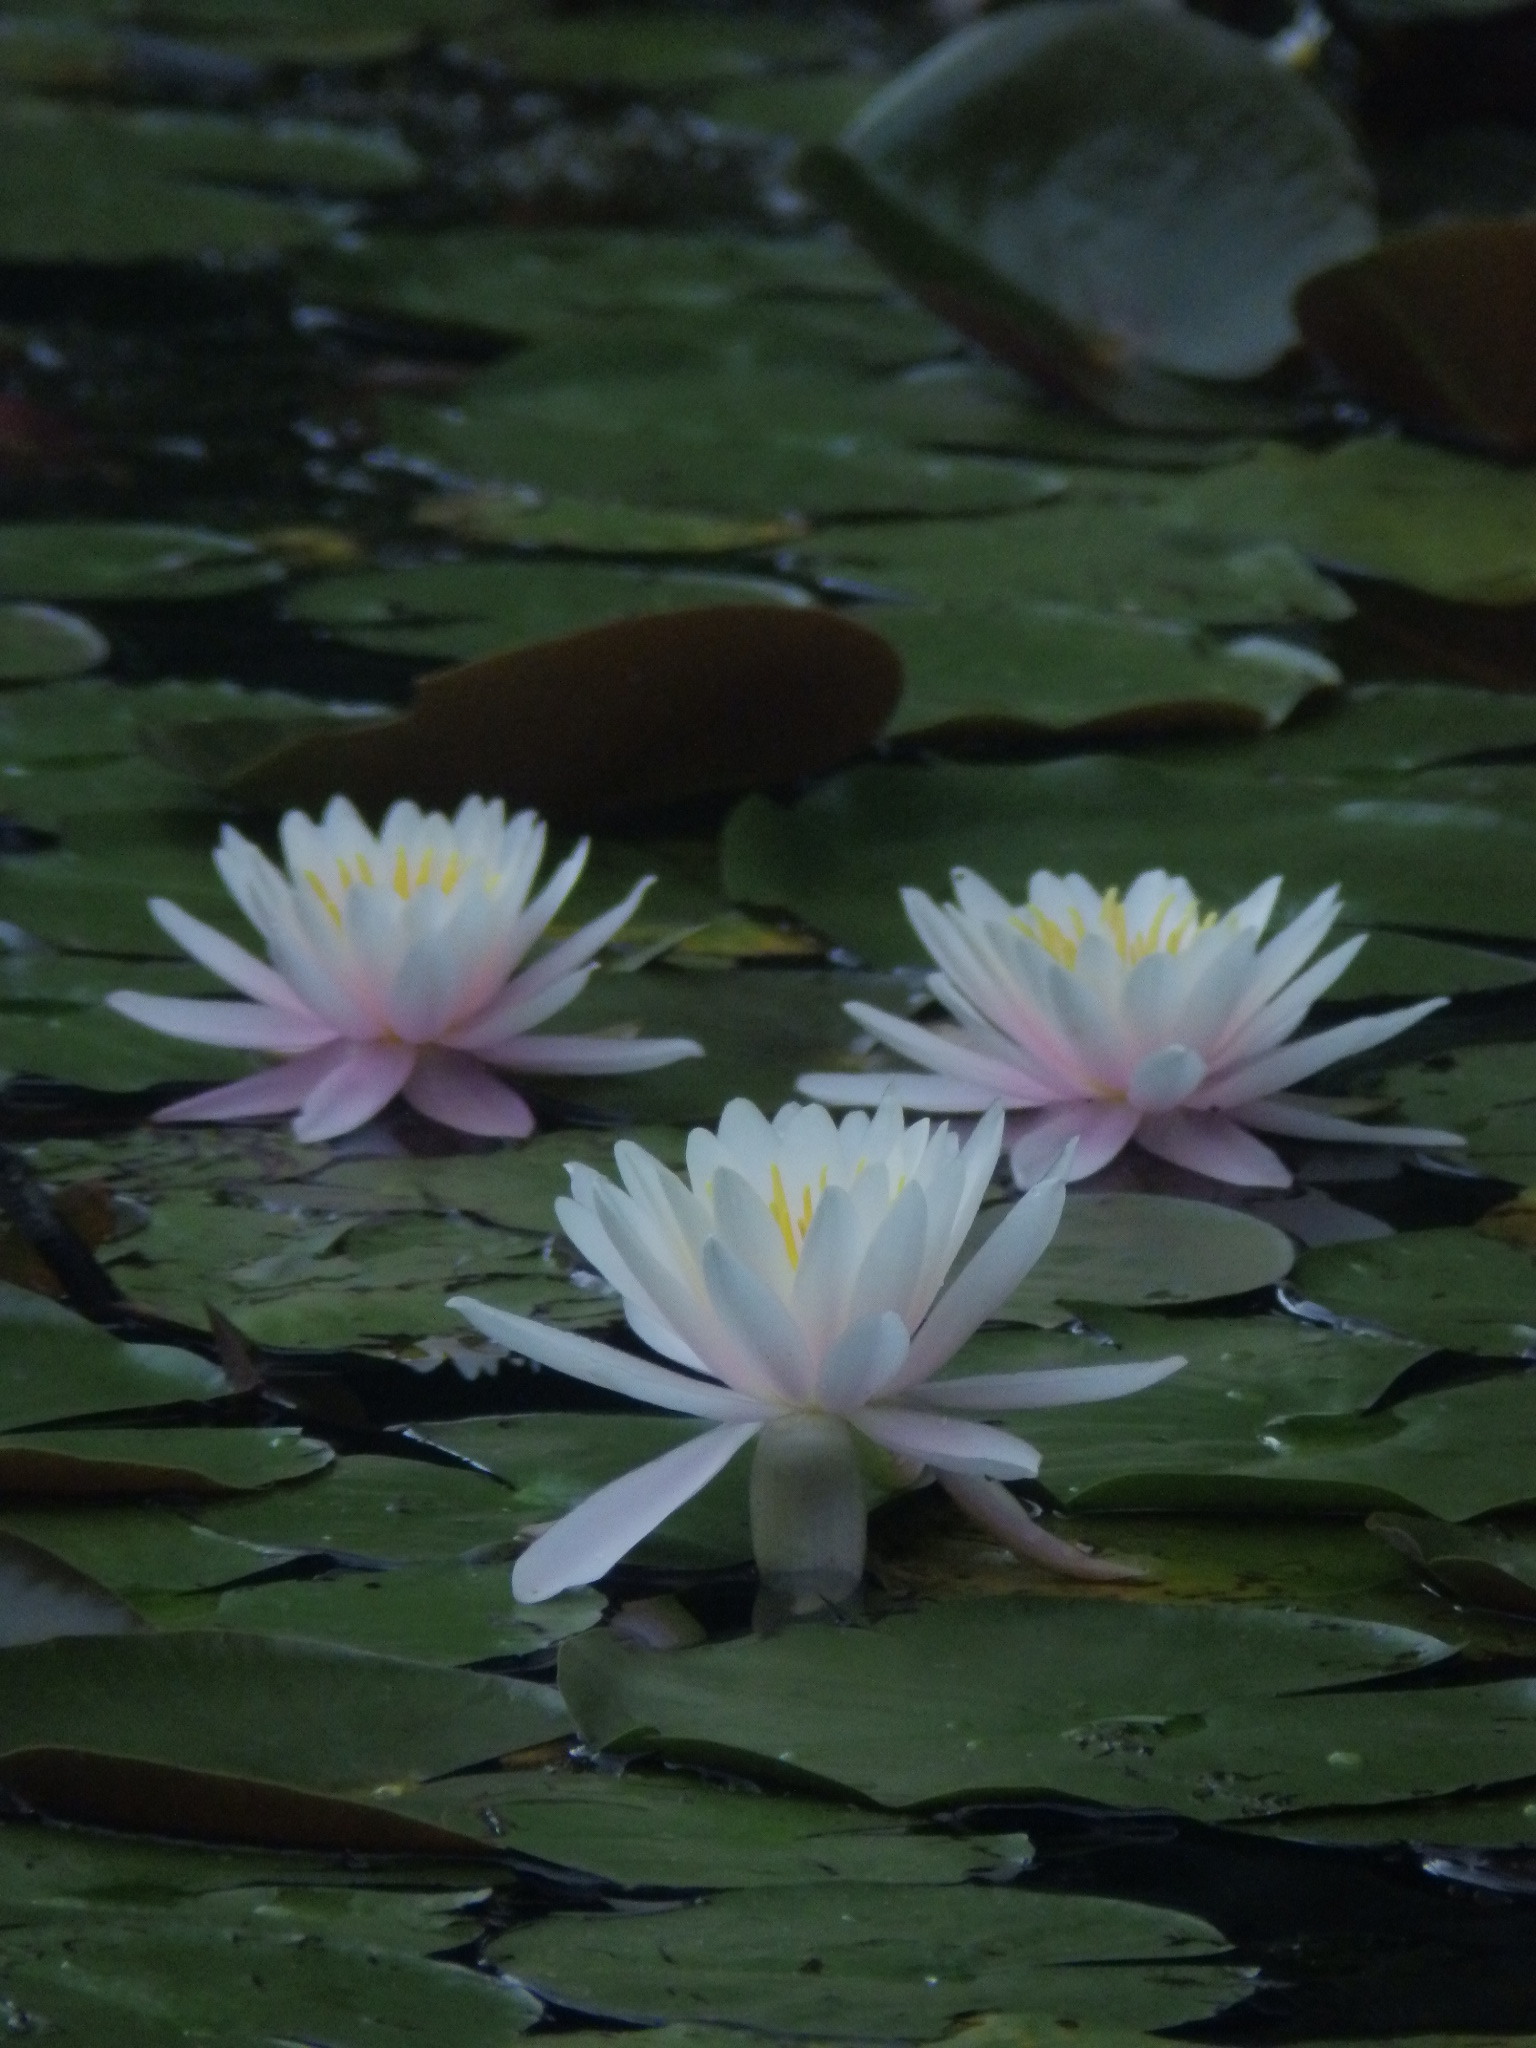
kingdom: Plantae
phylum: Tracheophyta
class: Magnoliopsida
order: Nymphaeales
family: Nymphaeaceae
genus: Nymphaea
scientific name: Nymphaea odorata
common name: Fragrant water-lily
